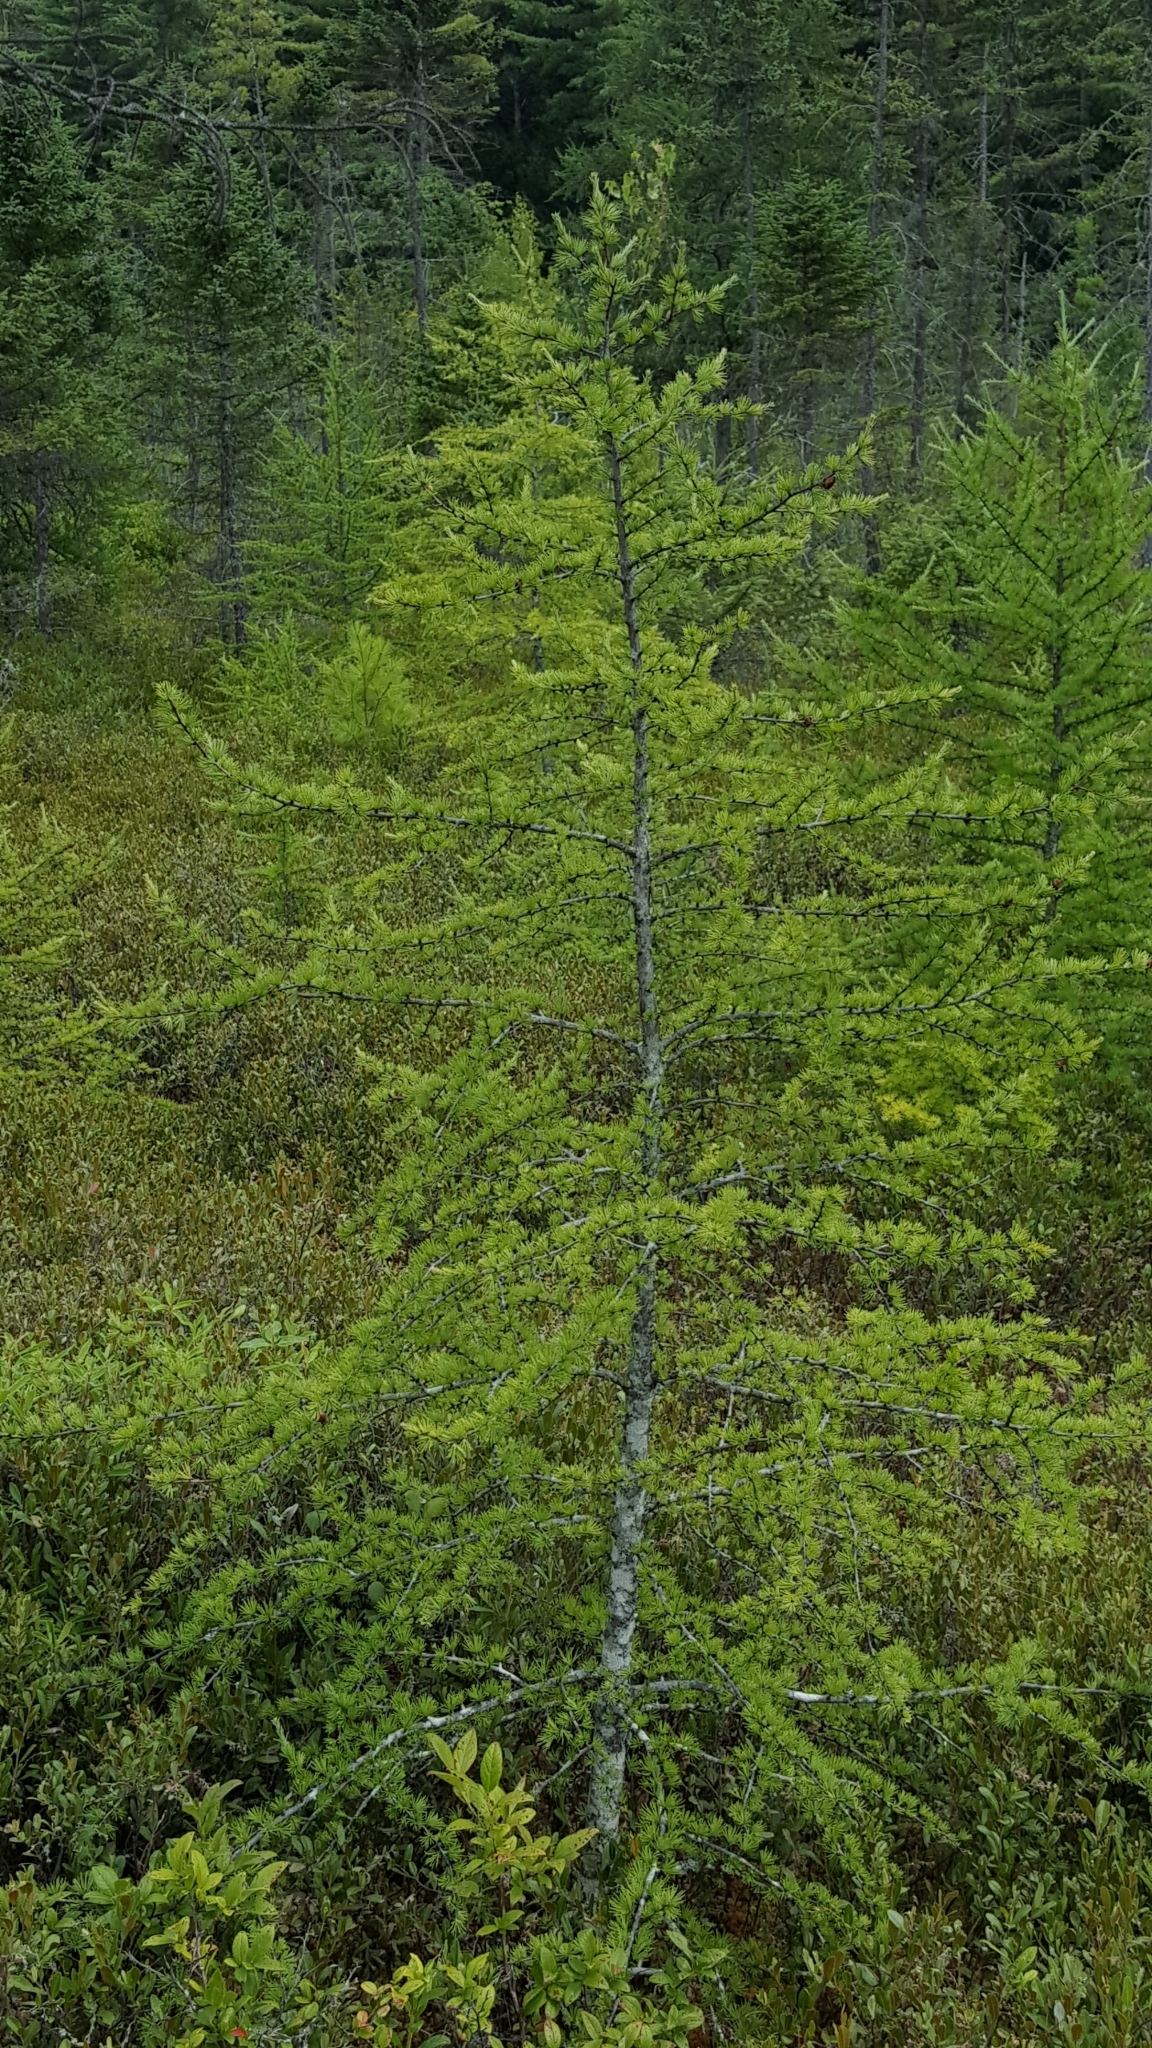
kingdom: Plantae
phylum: Tracheophyta
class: Pinopsida
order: Pinales
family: Pinaceae
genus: Larix
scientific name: Larix laricina
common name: American larch
